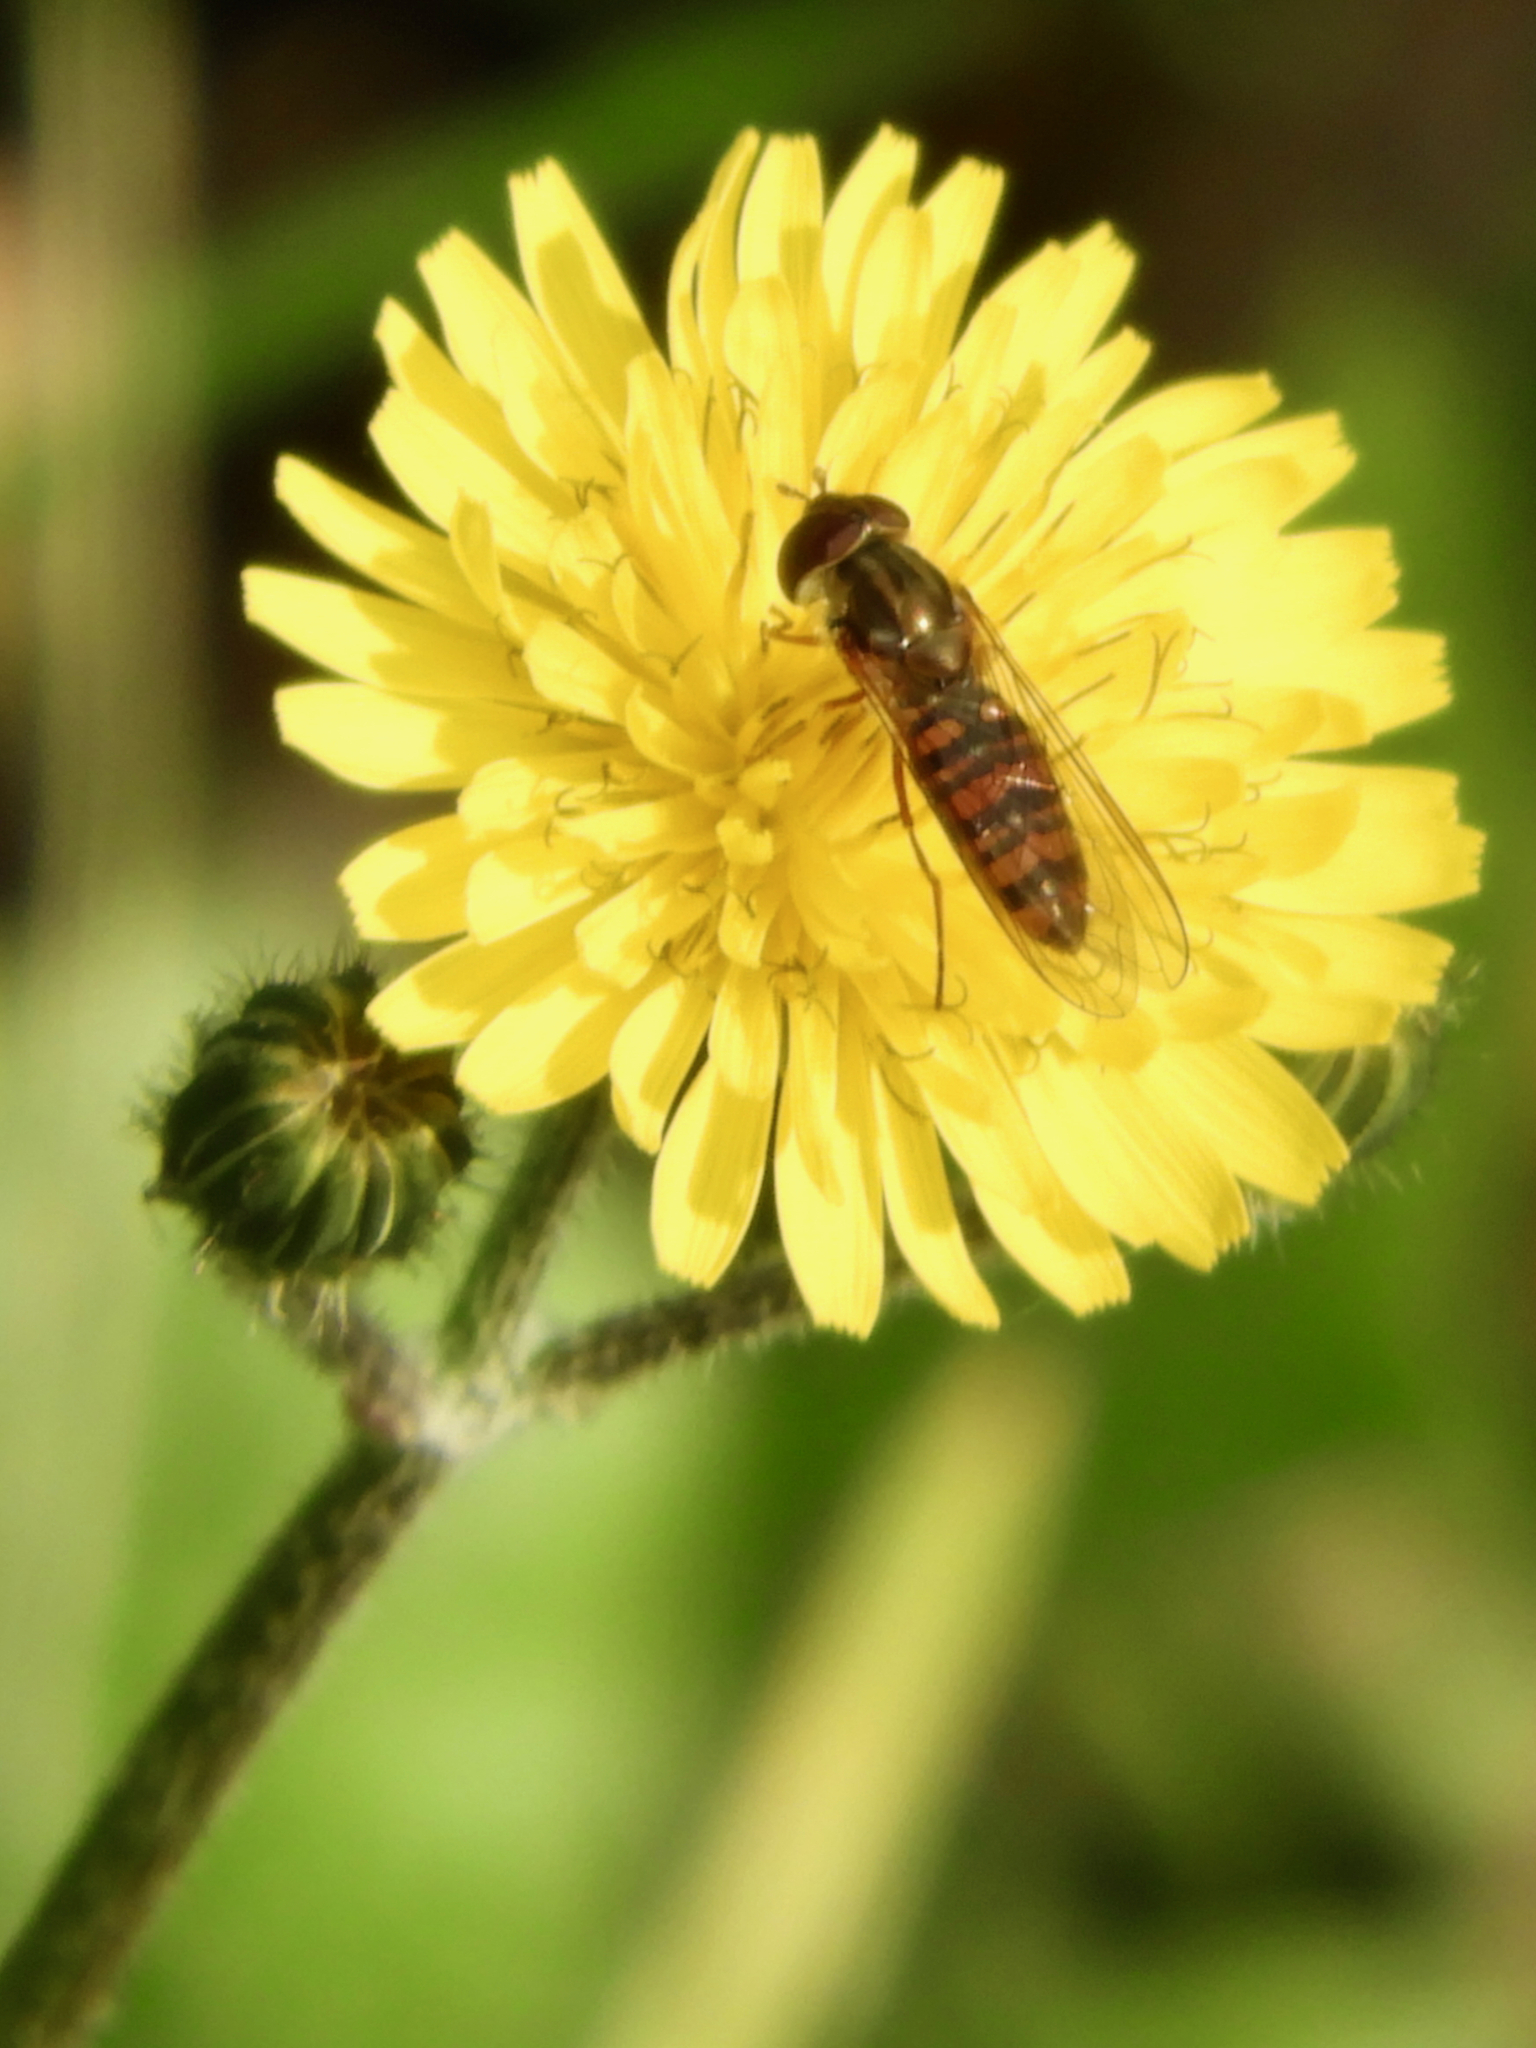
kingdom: Animalia
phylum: Arthropoda
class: Insecta
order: Diptera
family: Syrphidae
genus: Episyrphus
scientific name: Episyrphus balteatus
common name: Marmalade hoverfly
